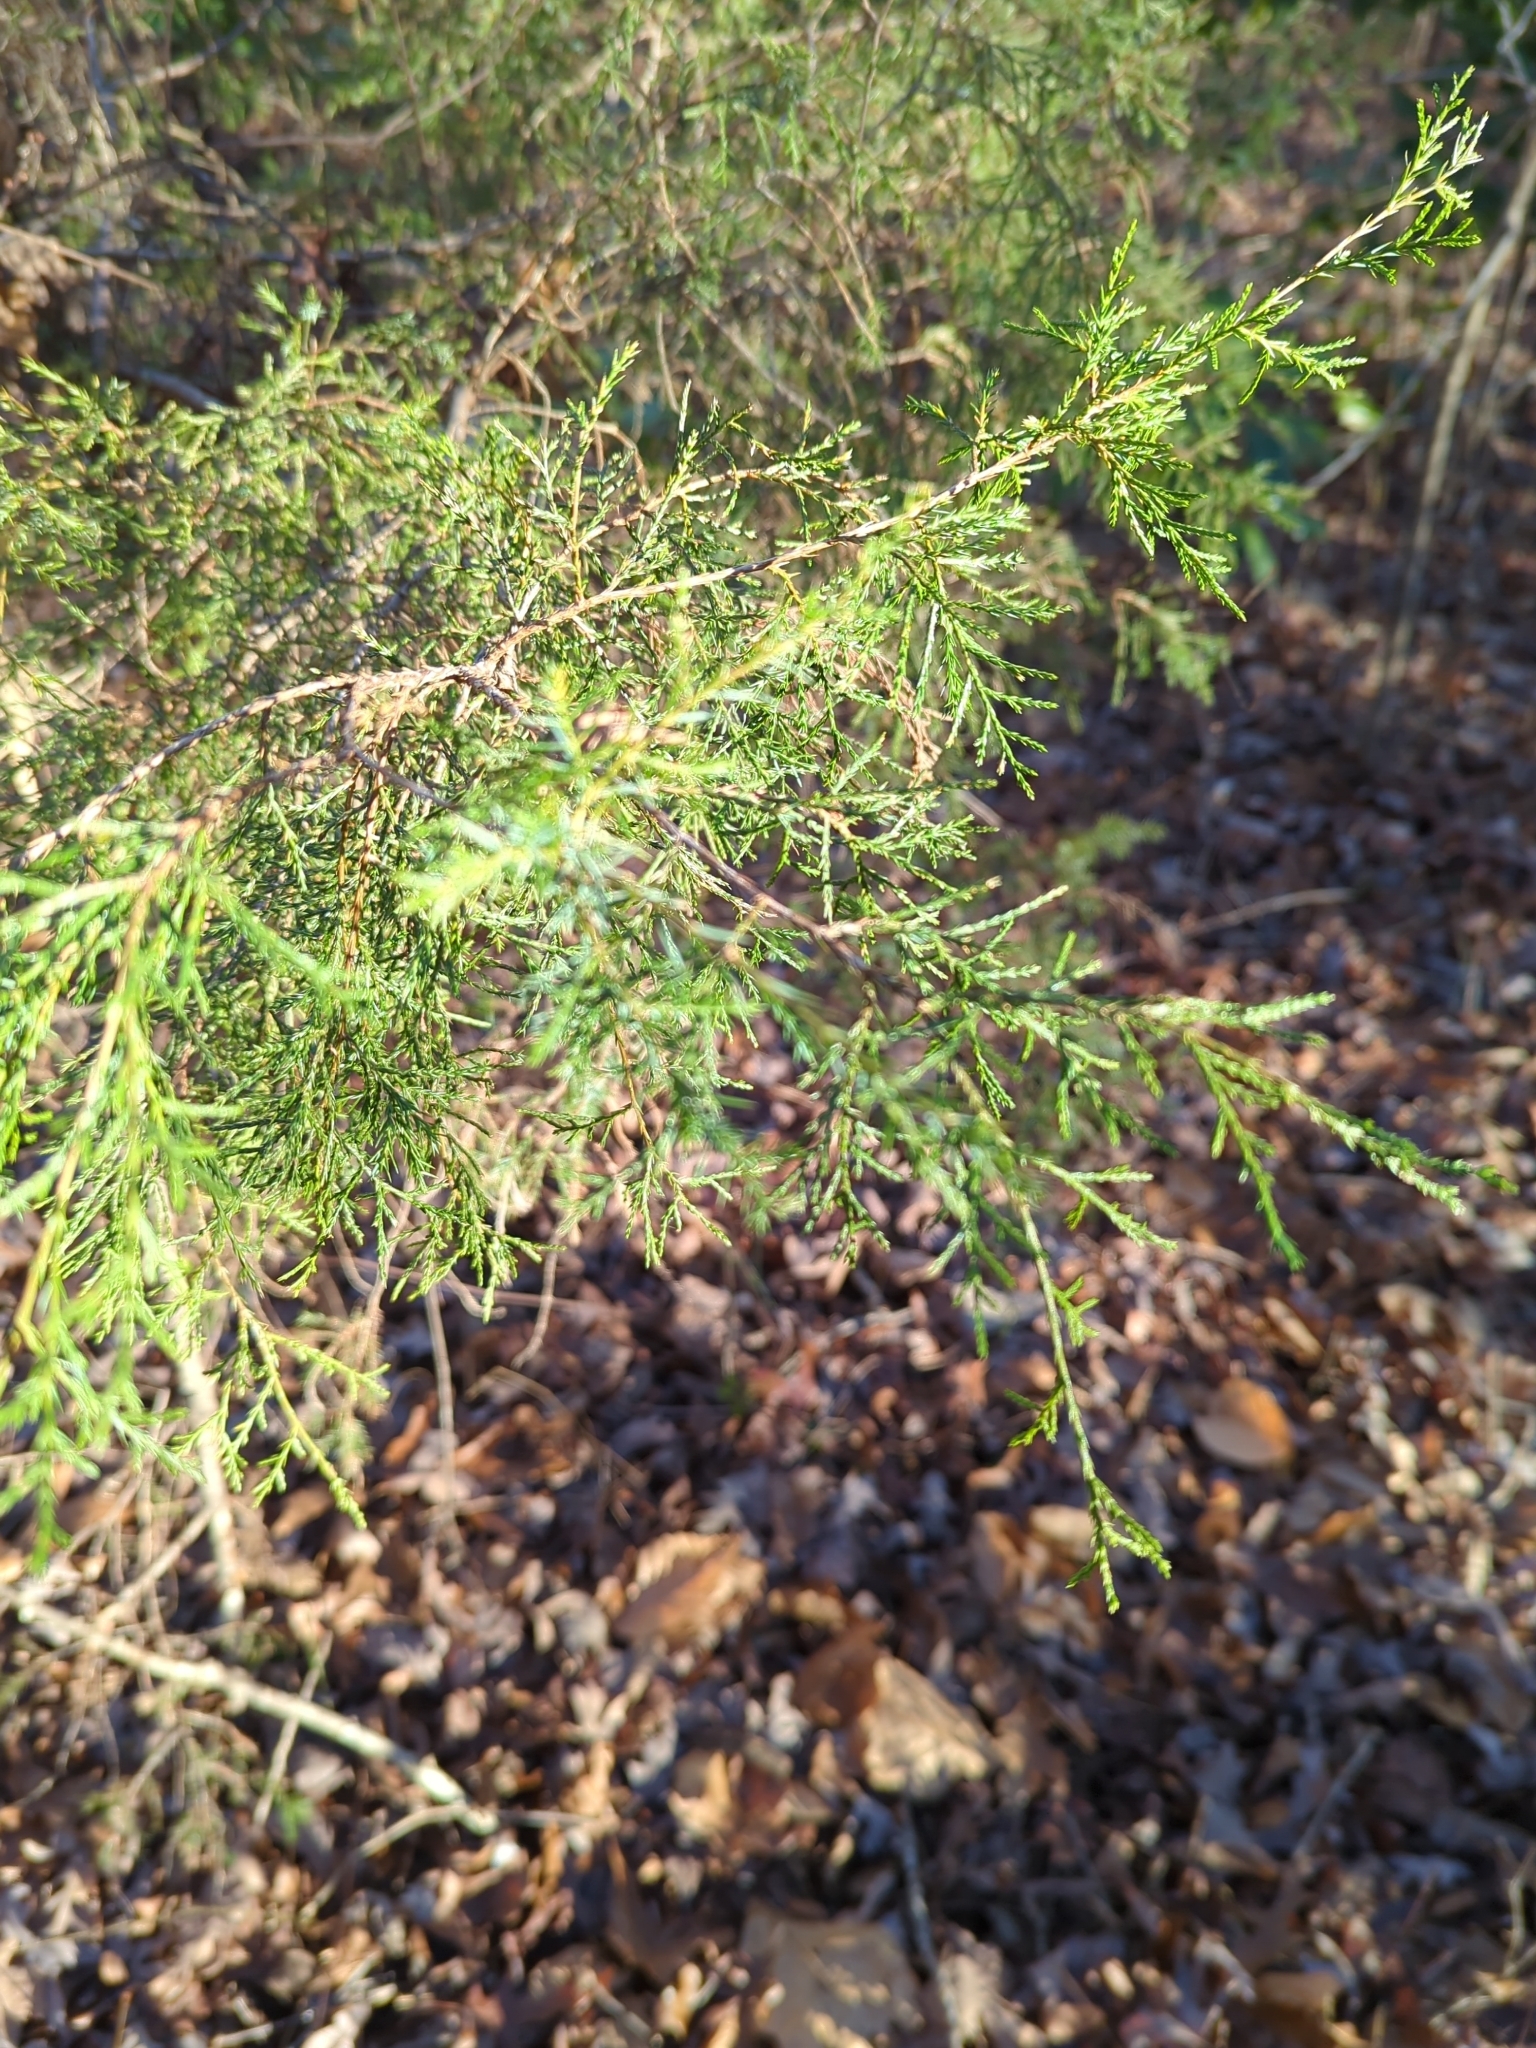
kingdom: Plantae
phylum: Tracheophyta
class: Pinopsida
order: Pinales
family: Cupressaceae
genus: Juniperus
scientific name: Juniperus virginiana
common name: Red juniper
